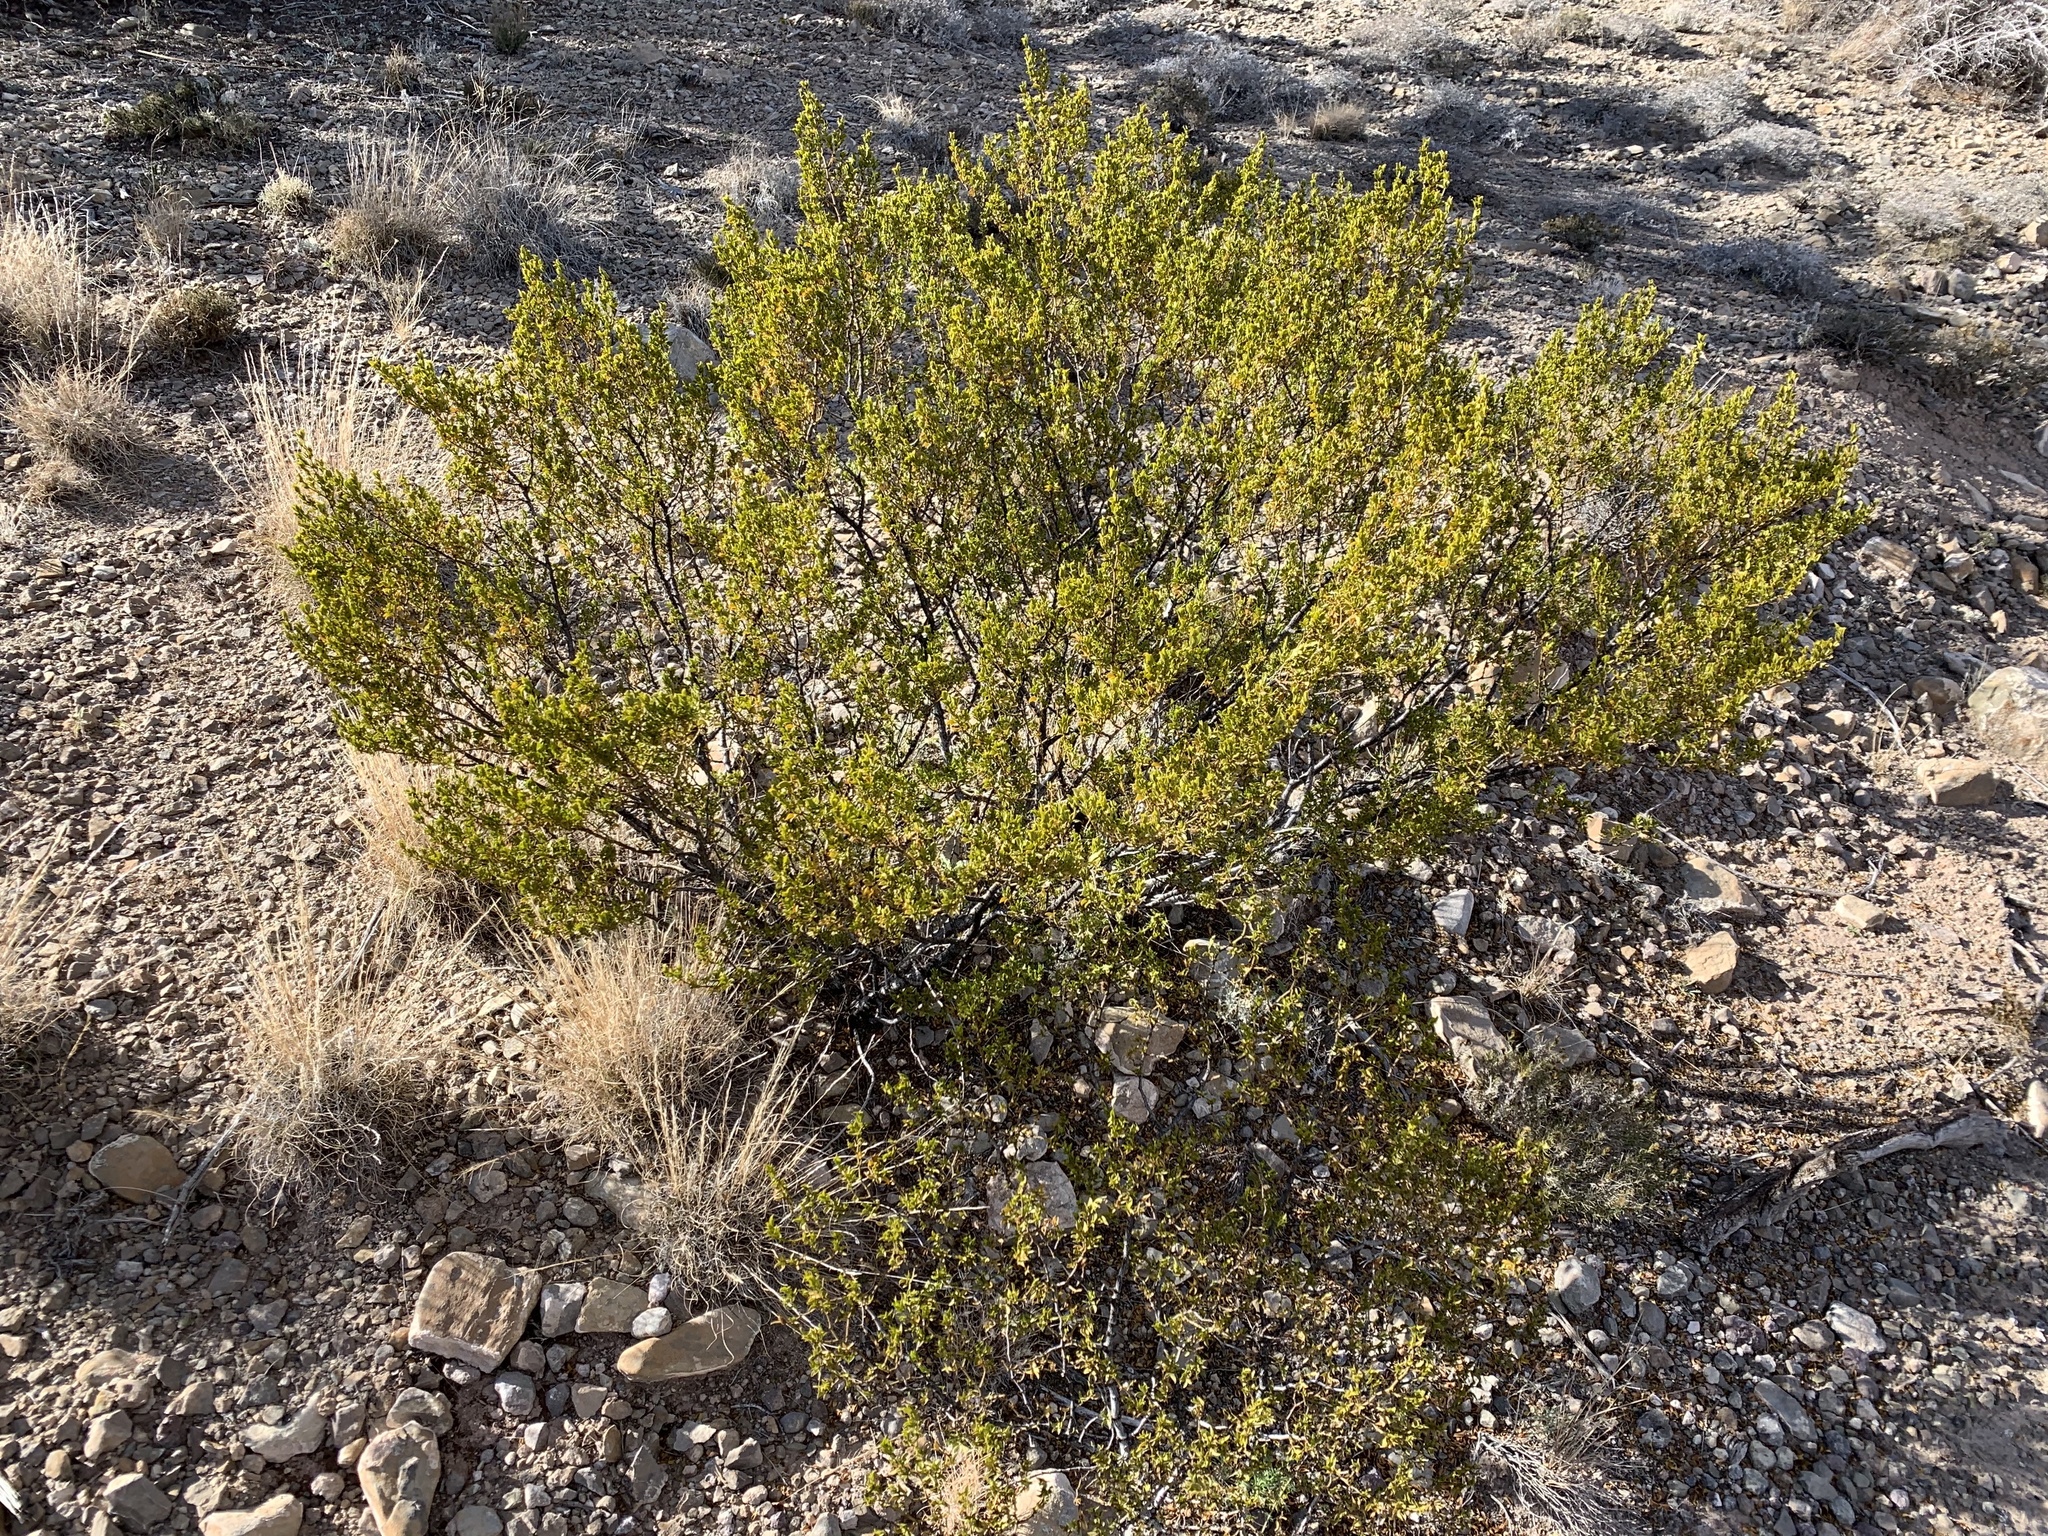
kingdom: Plantae
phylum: Tracheophyta
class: Magnoliopsida
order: Zygophyllales
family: Zygophyllaceae
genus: Larrea
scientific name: Larrea tridentata
